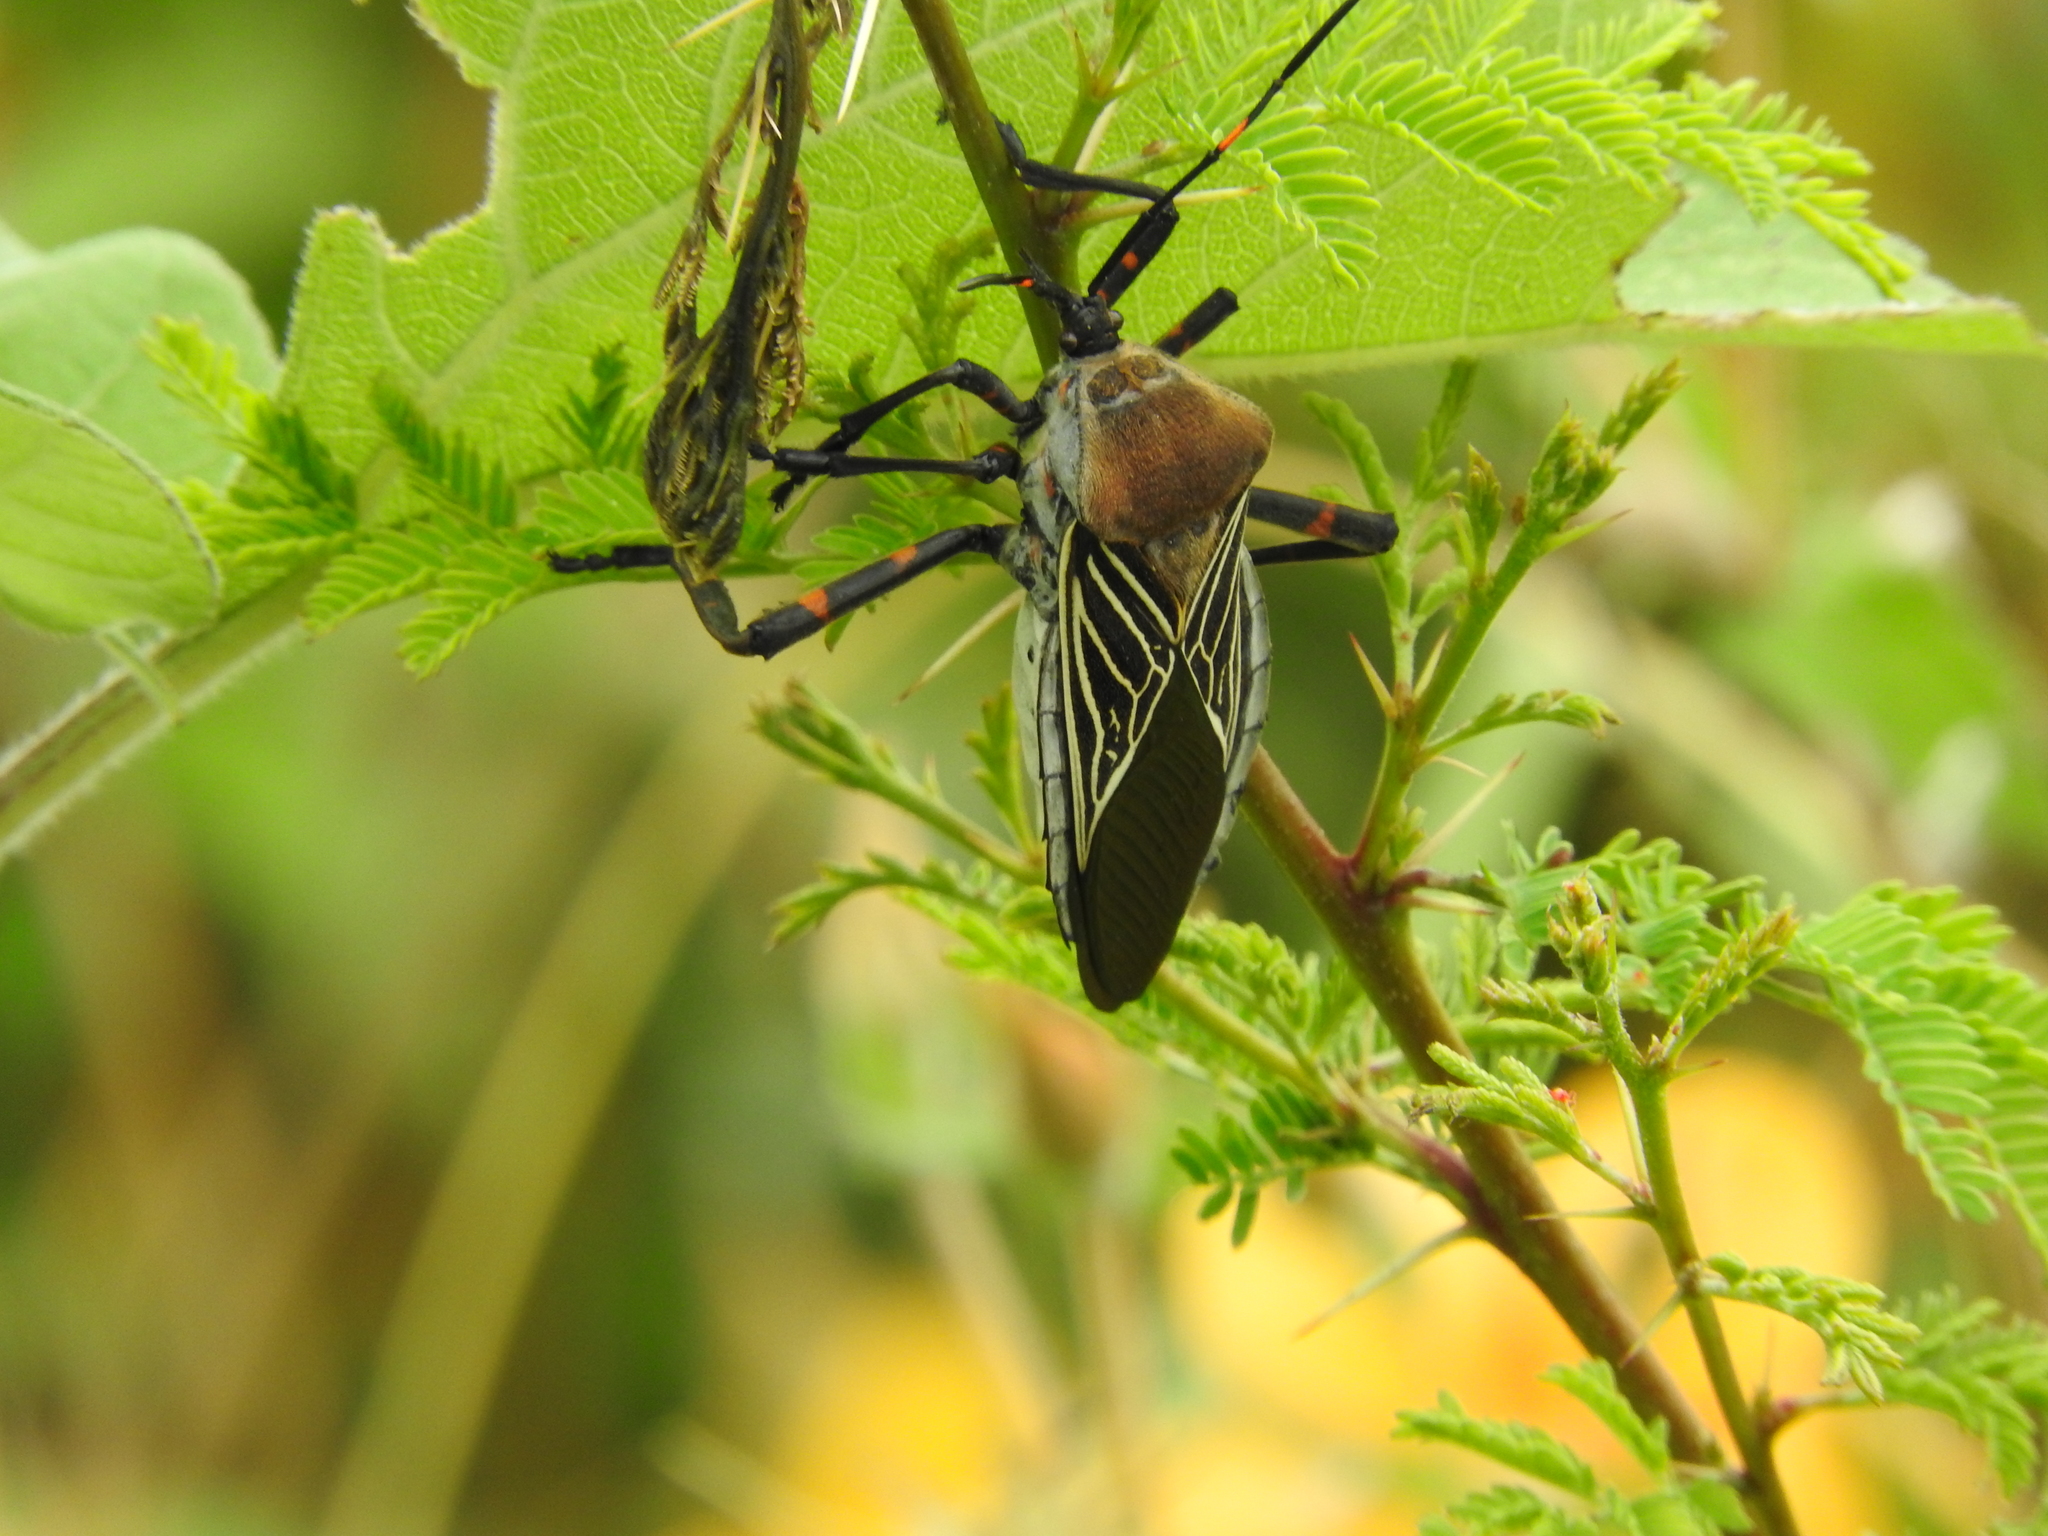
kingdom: Animalia
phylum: Arthropoda
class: Insecta
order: Hemiptera
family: Coreidae
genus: Thasus
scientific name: Thasus
